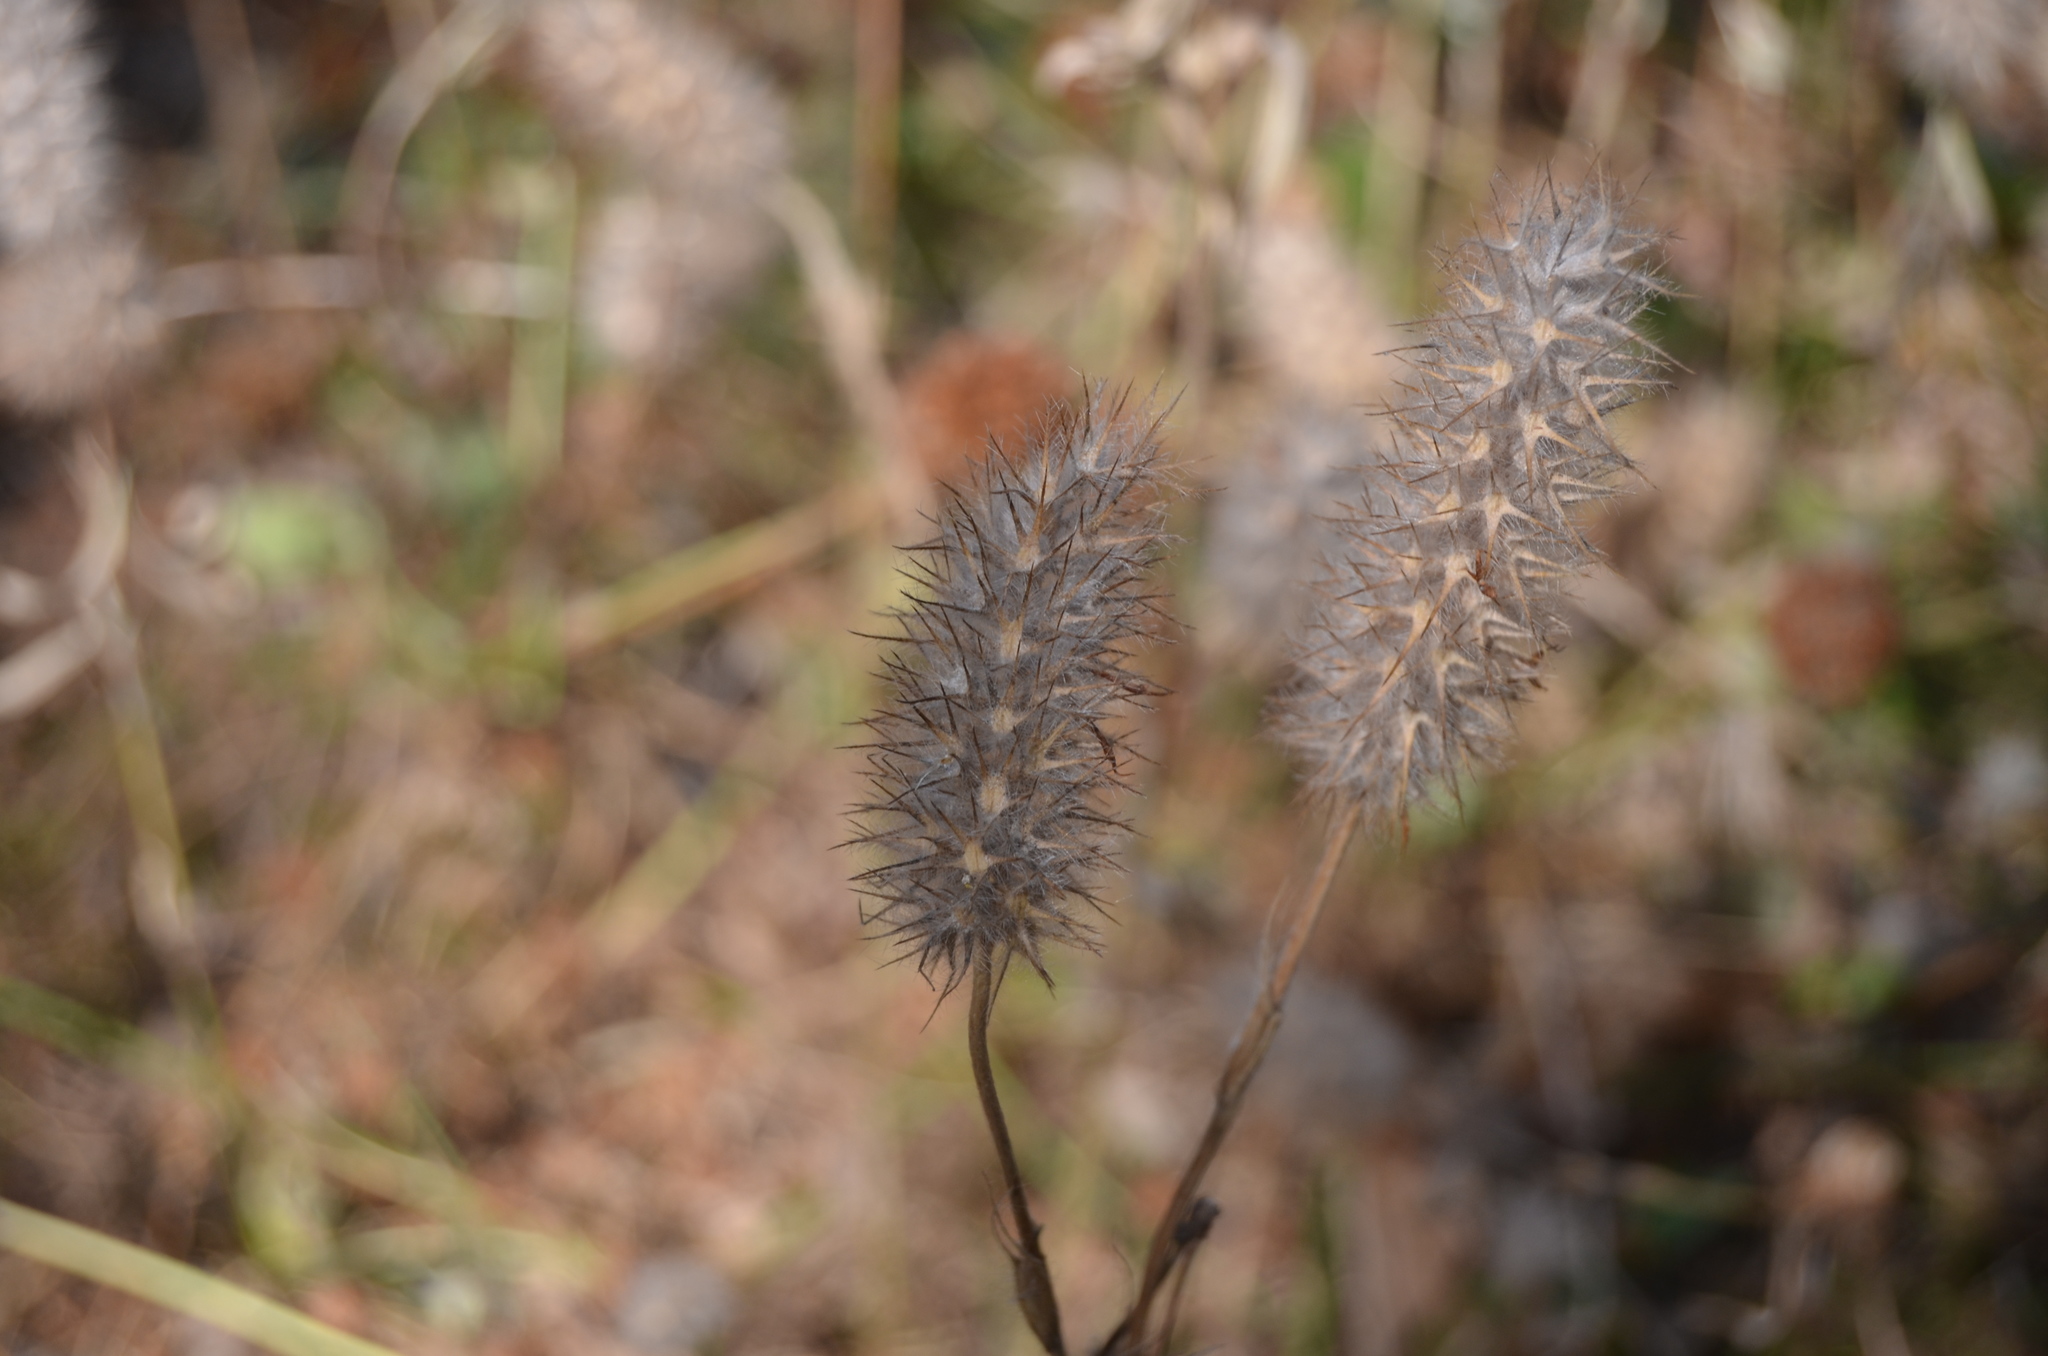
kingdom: Plantae
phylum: Tracheophyta
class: Magnoliopsida
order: Fabales
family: Fabaceae
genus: Trifolium
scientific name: Trifolium angustifolium
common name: Narrow clover
